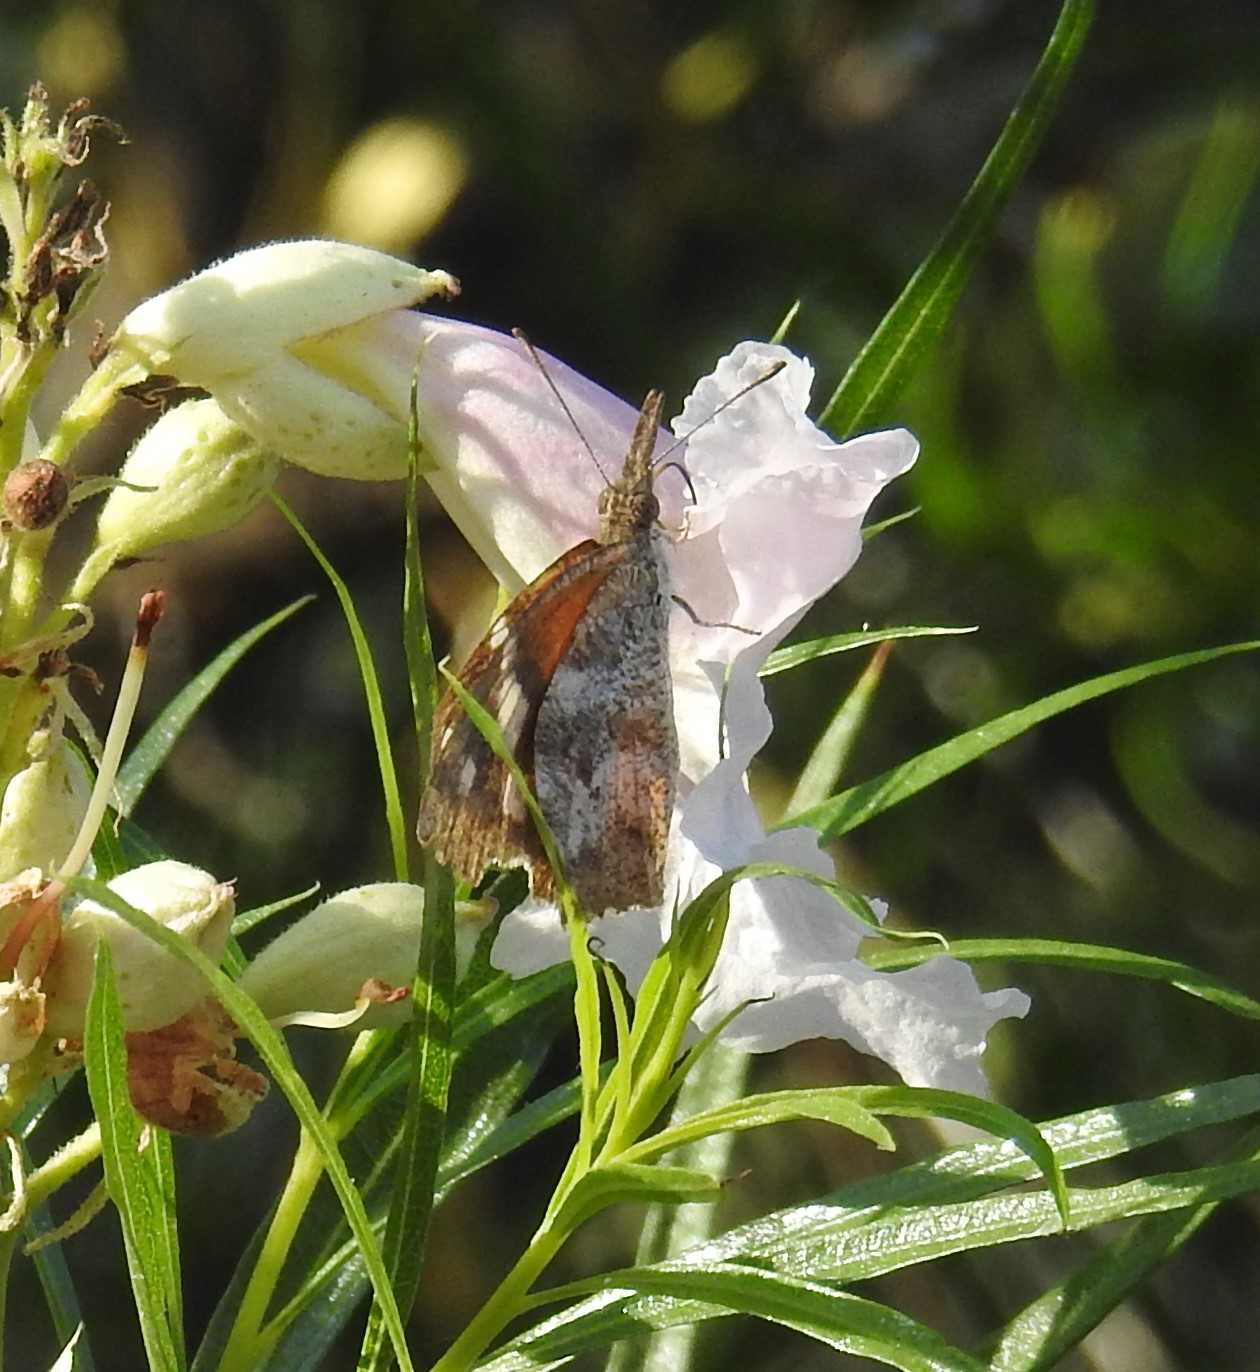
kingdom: Animalia
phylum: Arthropoda
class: Insecta
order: Lepidoptera
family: Nymphalidae
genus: Libytheana
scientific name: Libytheana carinenta
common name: American snout
